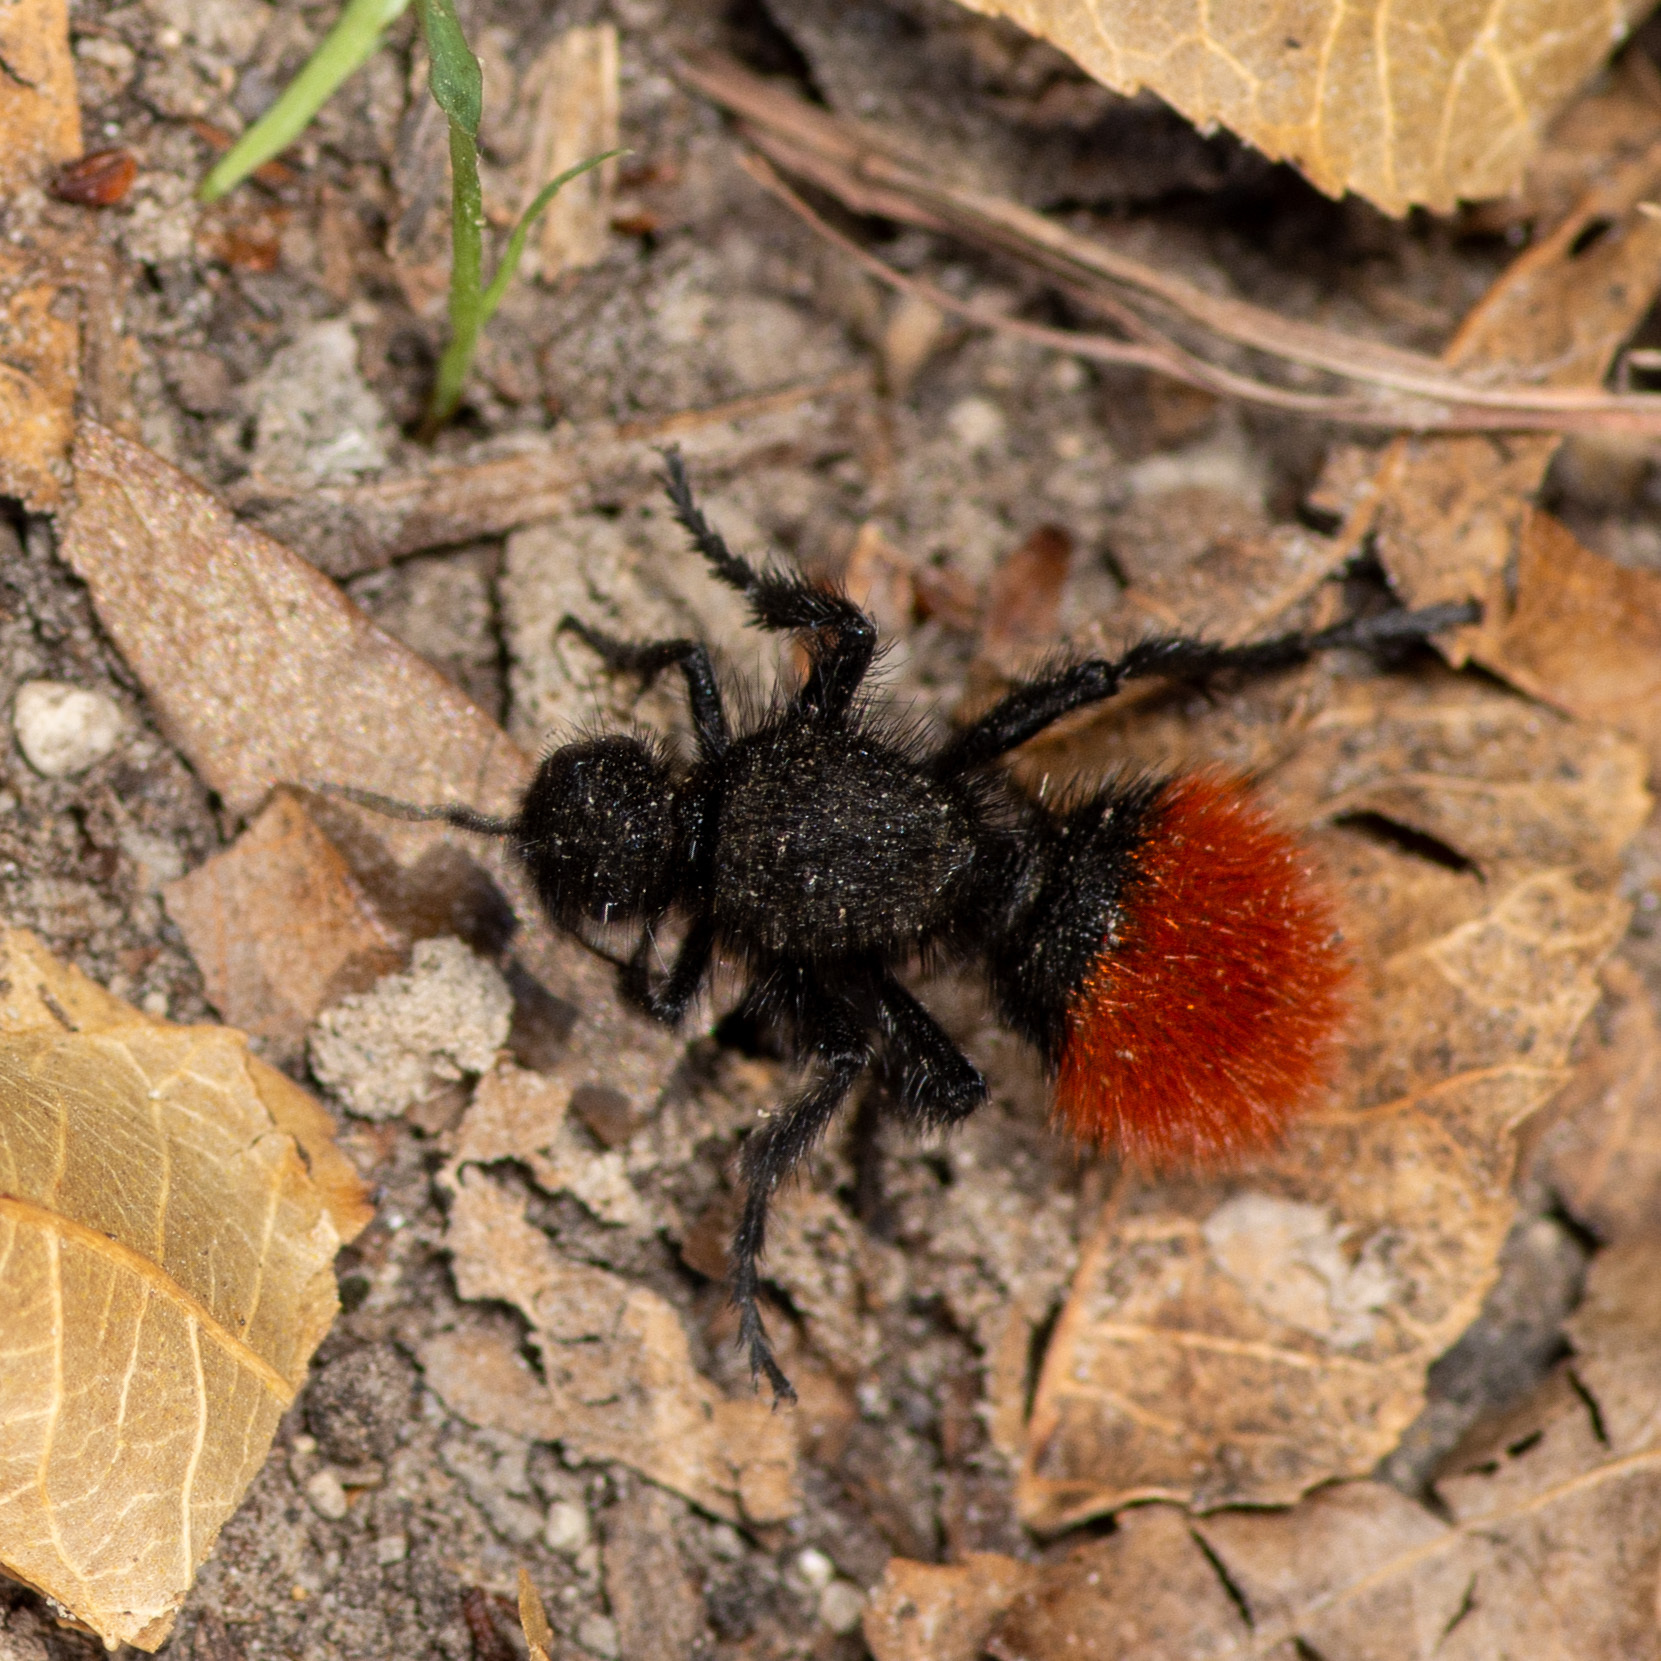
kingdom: Animalia
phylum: Arthropoda
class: Insecta
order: Hymenoptera
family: Mutillidae
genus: Dasymutilla
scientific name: Dasymutilla
